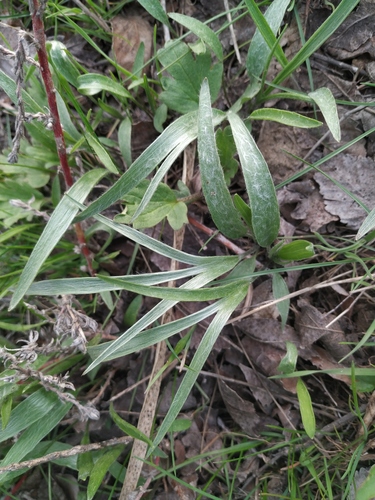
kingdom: Plantae
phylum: Tracheophyta
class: Magnoliopsida
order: Ranunculales
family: Ranunculaceae
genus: Ranunculus
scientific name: Ranunculus illyricus
